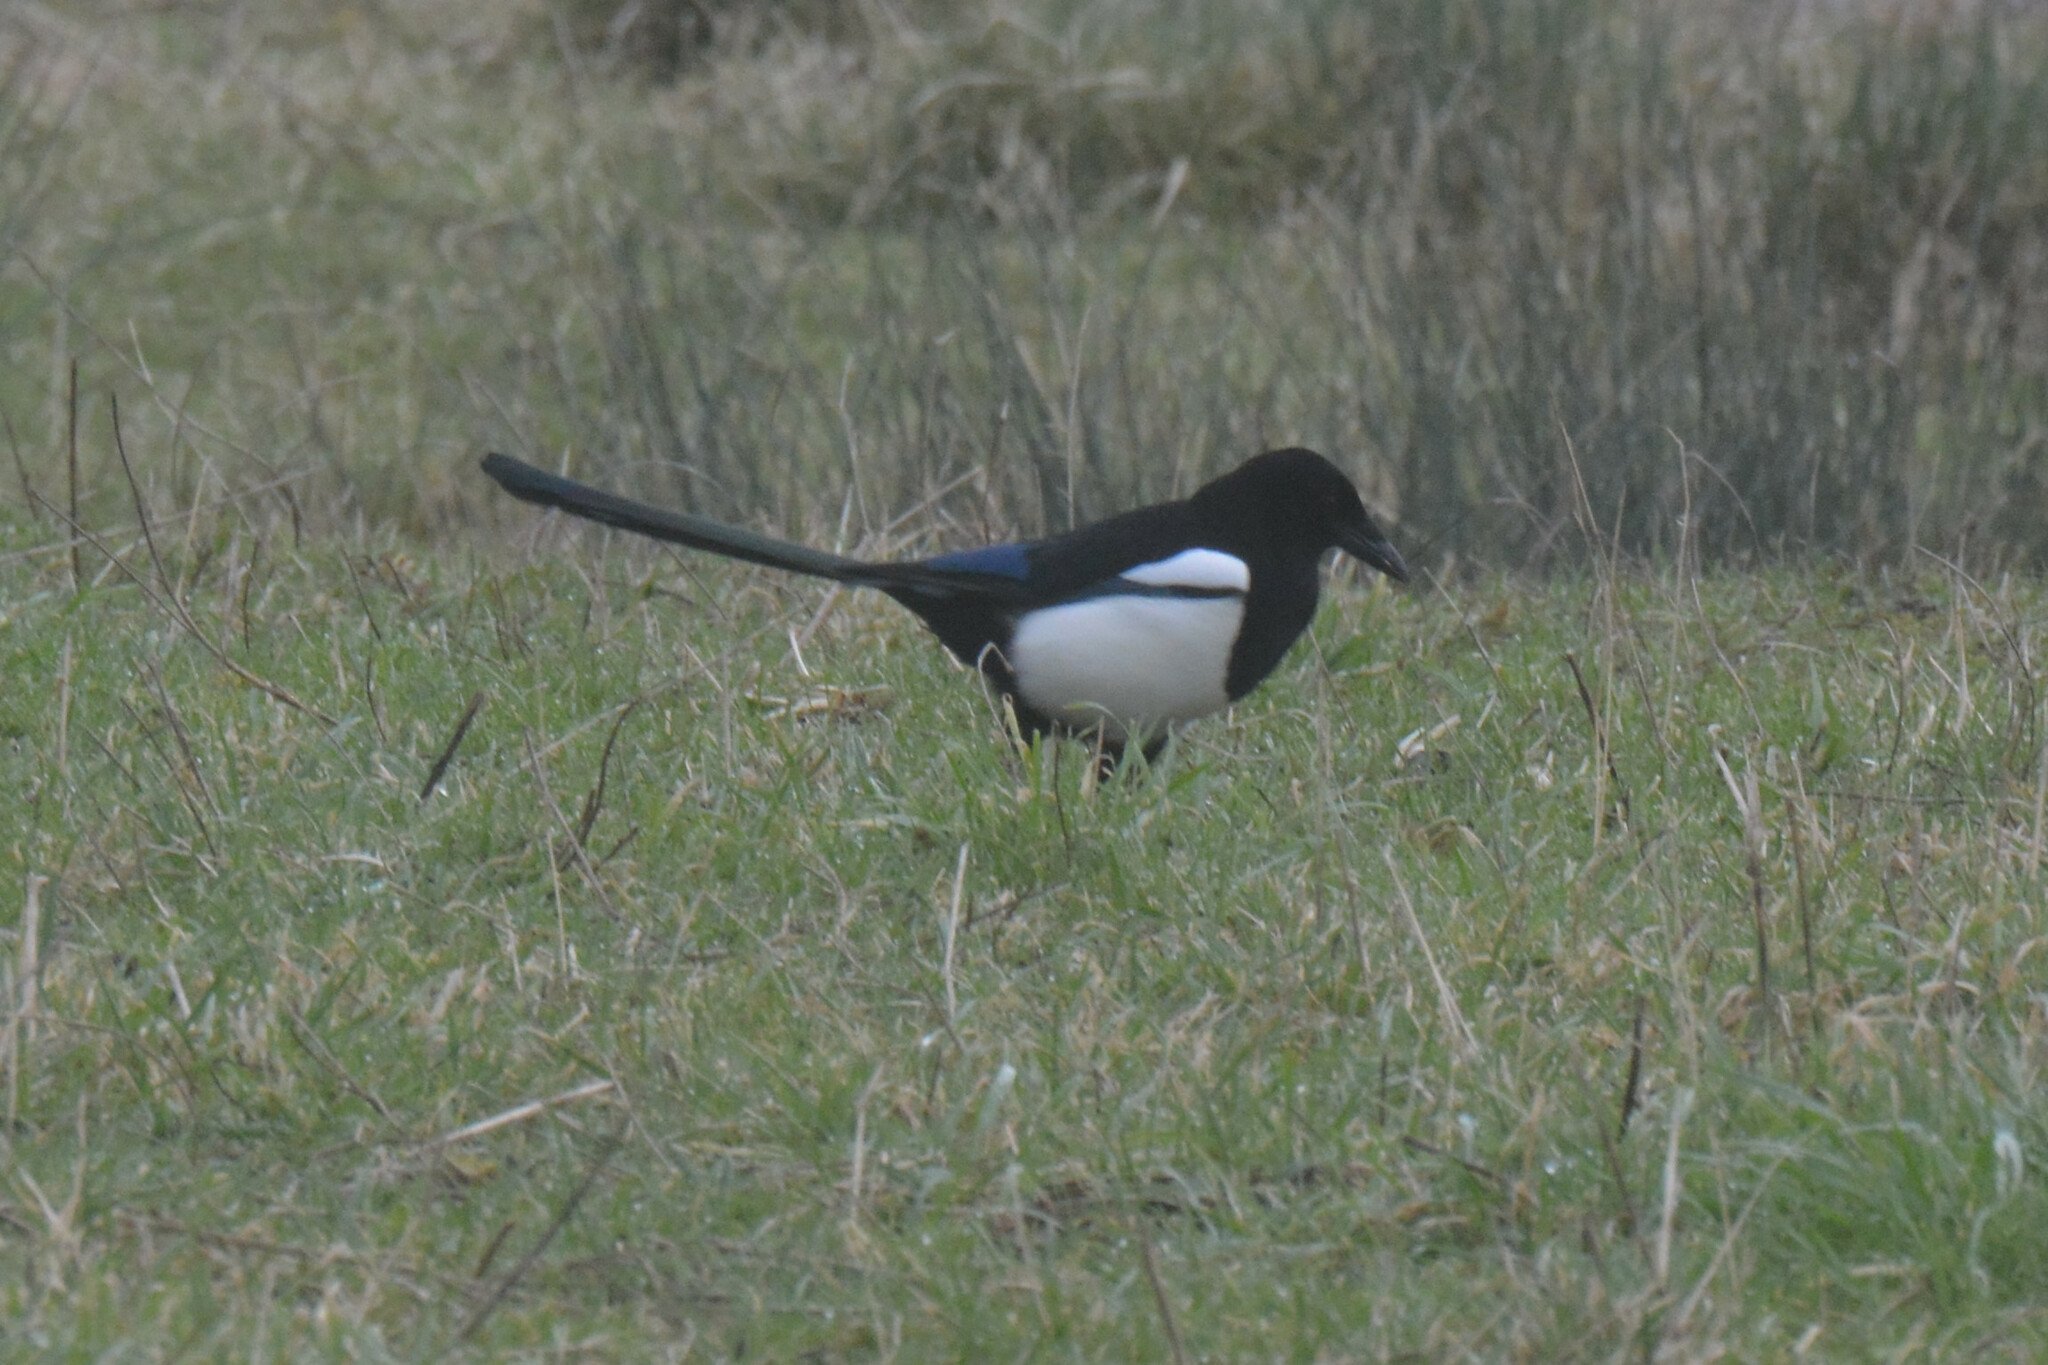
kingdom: Animalia
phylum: Chordata
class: Aves
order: Passeriformes
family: Corvidae
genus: Pica
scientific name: Pica pica
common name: Eurasian magpie
